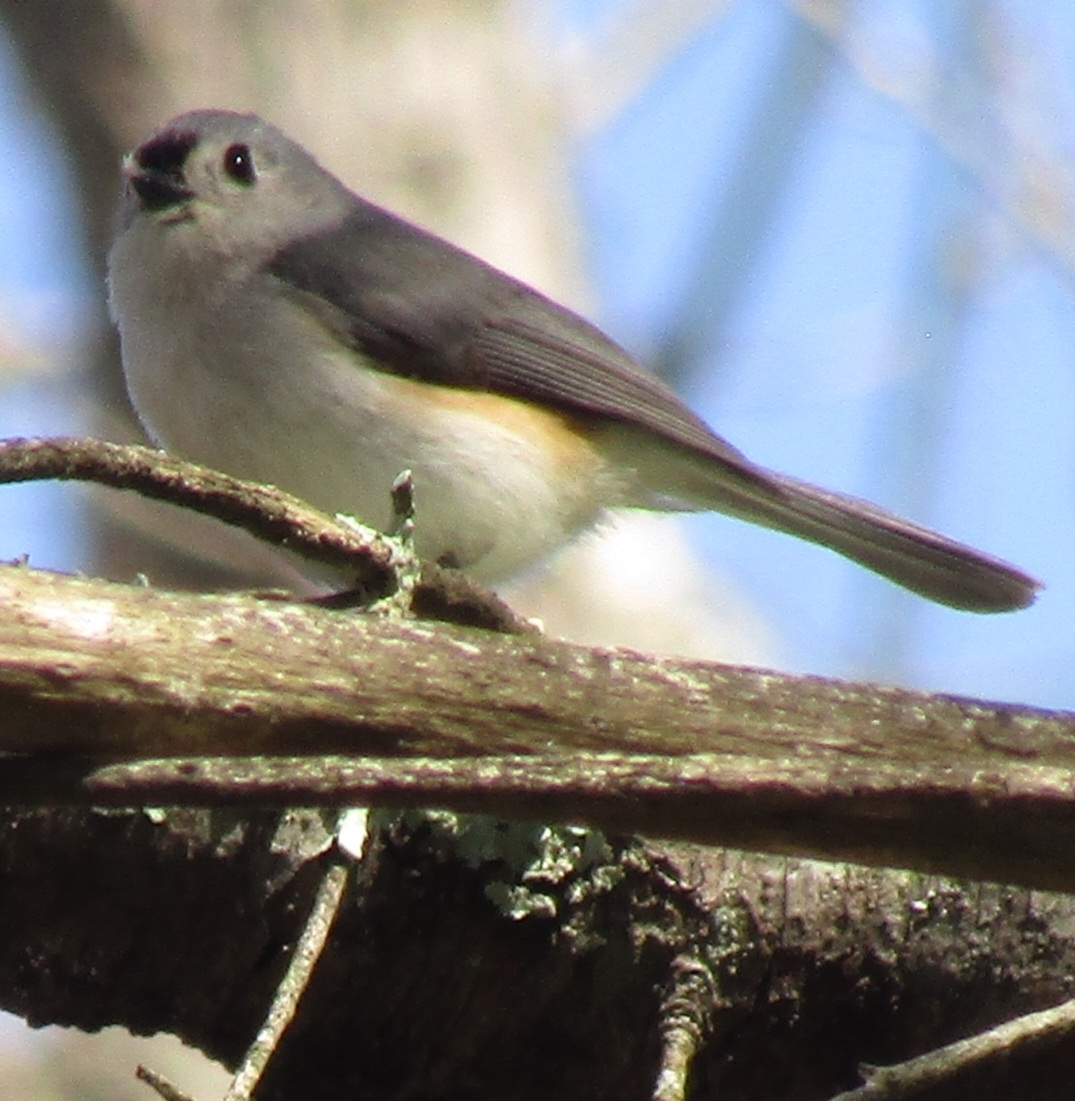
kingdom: Animalia
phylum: Chordata
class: Aves
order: Passeriformes
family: Paridae
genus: Baeolophus
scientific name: Baeolophus bicolor
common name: Tufted titmouse
